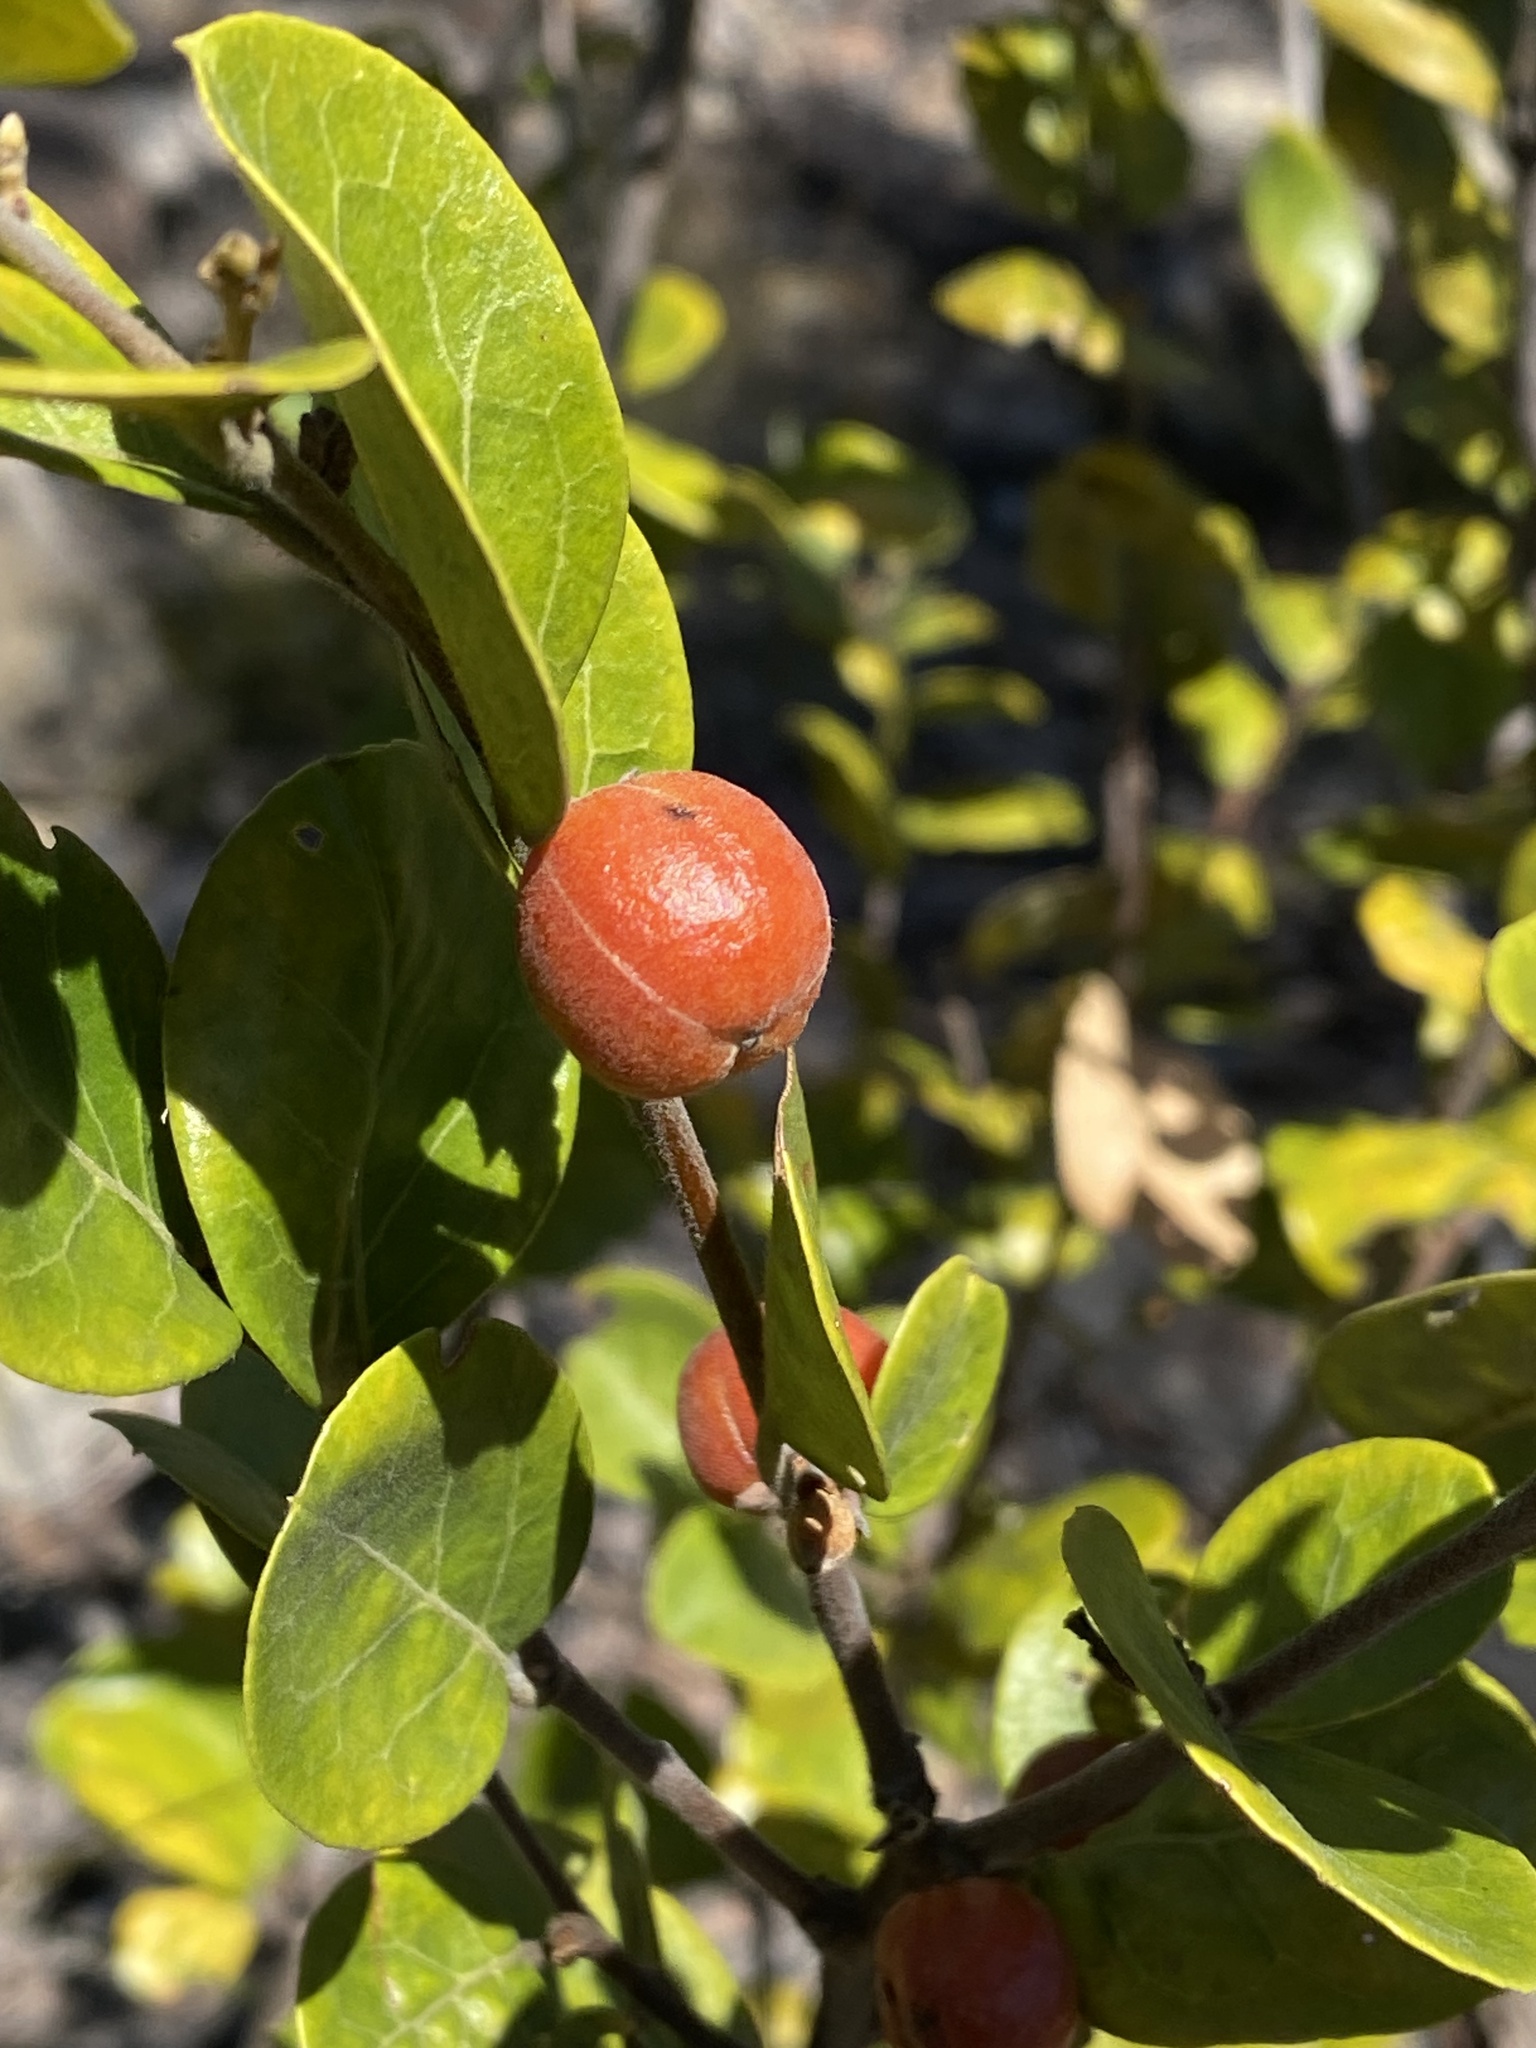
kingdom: Plantae
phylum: Tracheophyta
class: Magnoliopsida
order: Malpighiales
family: Picrodendraceae
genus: Petalostigma
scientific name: Petalostigma pachyphyllum
